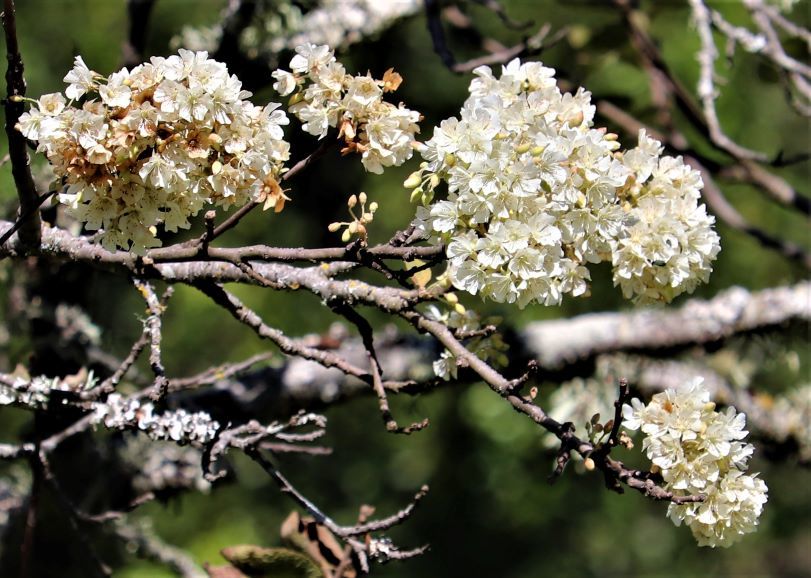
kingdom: Plantae
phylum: Tracheophyta
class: Magnoliopsida
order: Malvales
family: Malvaceae
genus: Dombeya
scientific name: Dombeya rotundifolia
